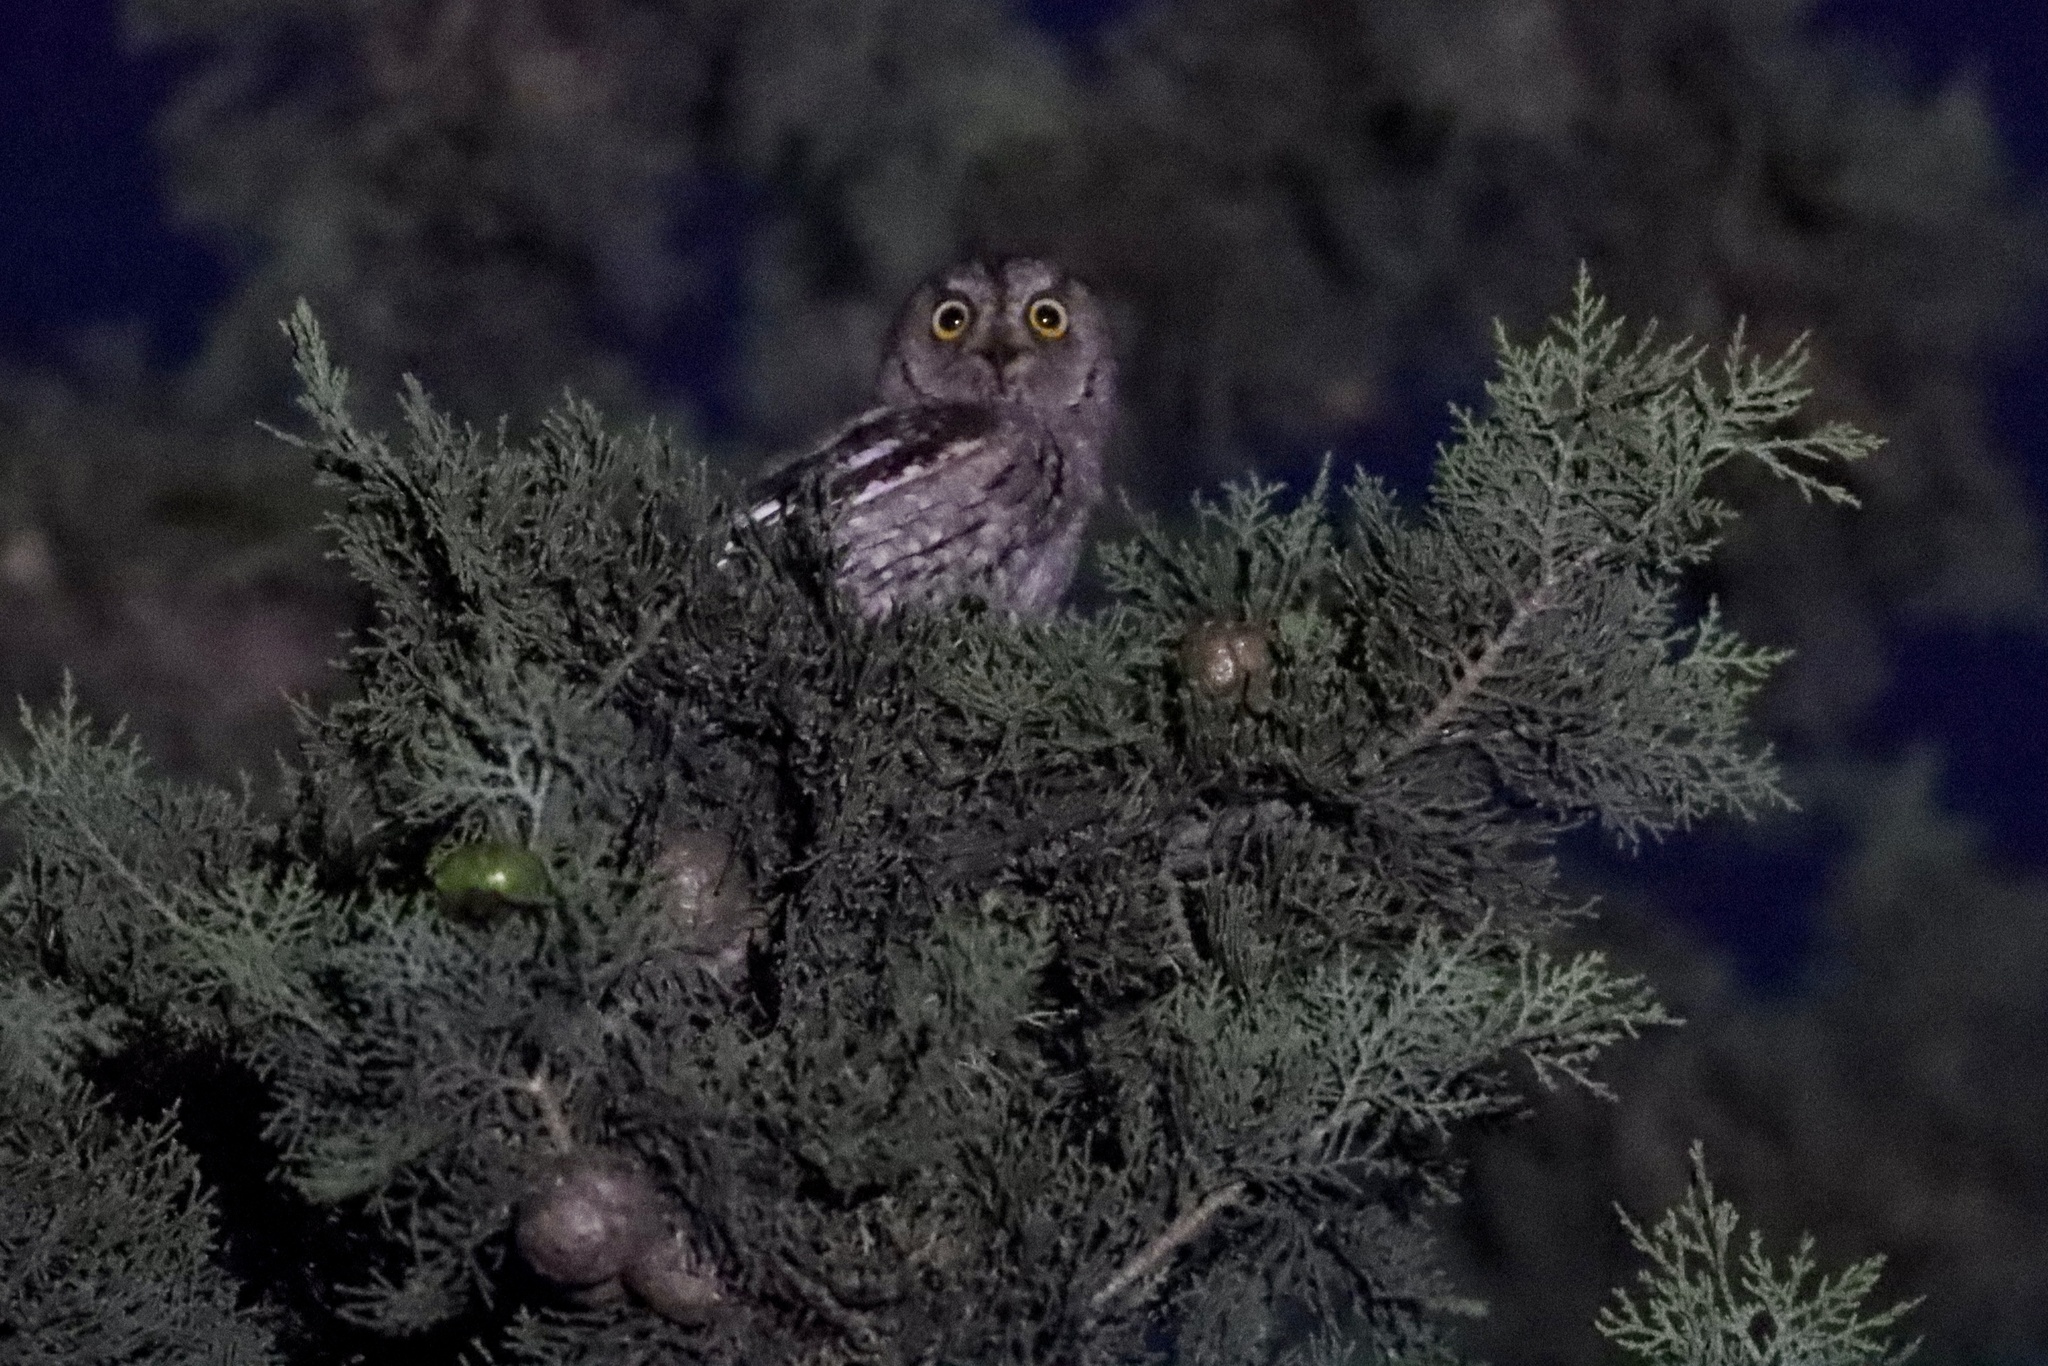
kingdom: Animalia
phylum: Chordata
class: Aves
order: Strigiformes
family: Strigidae
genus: Otus
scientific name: Otus scops
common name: Eurasian scops owl
